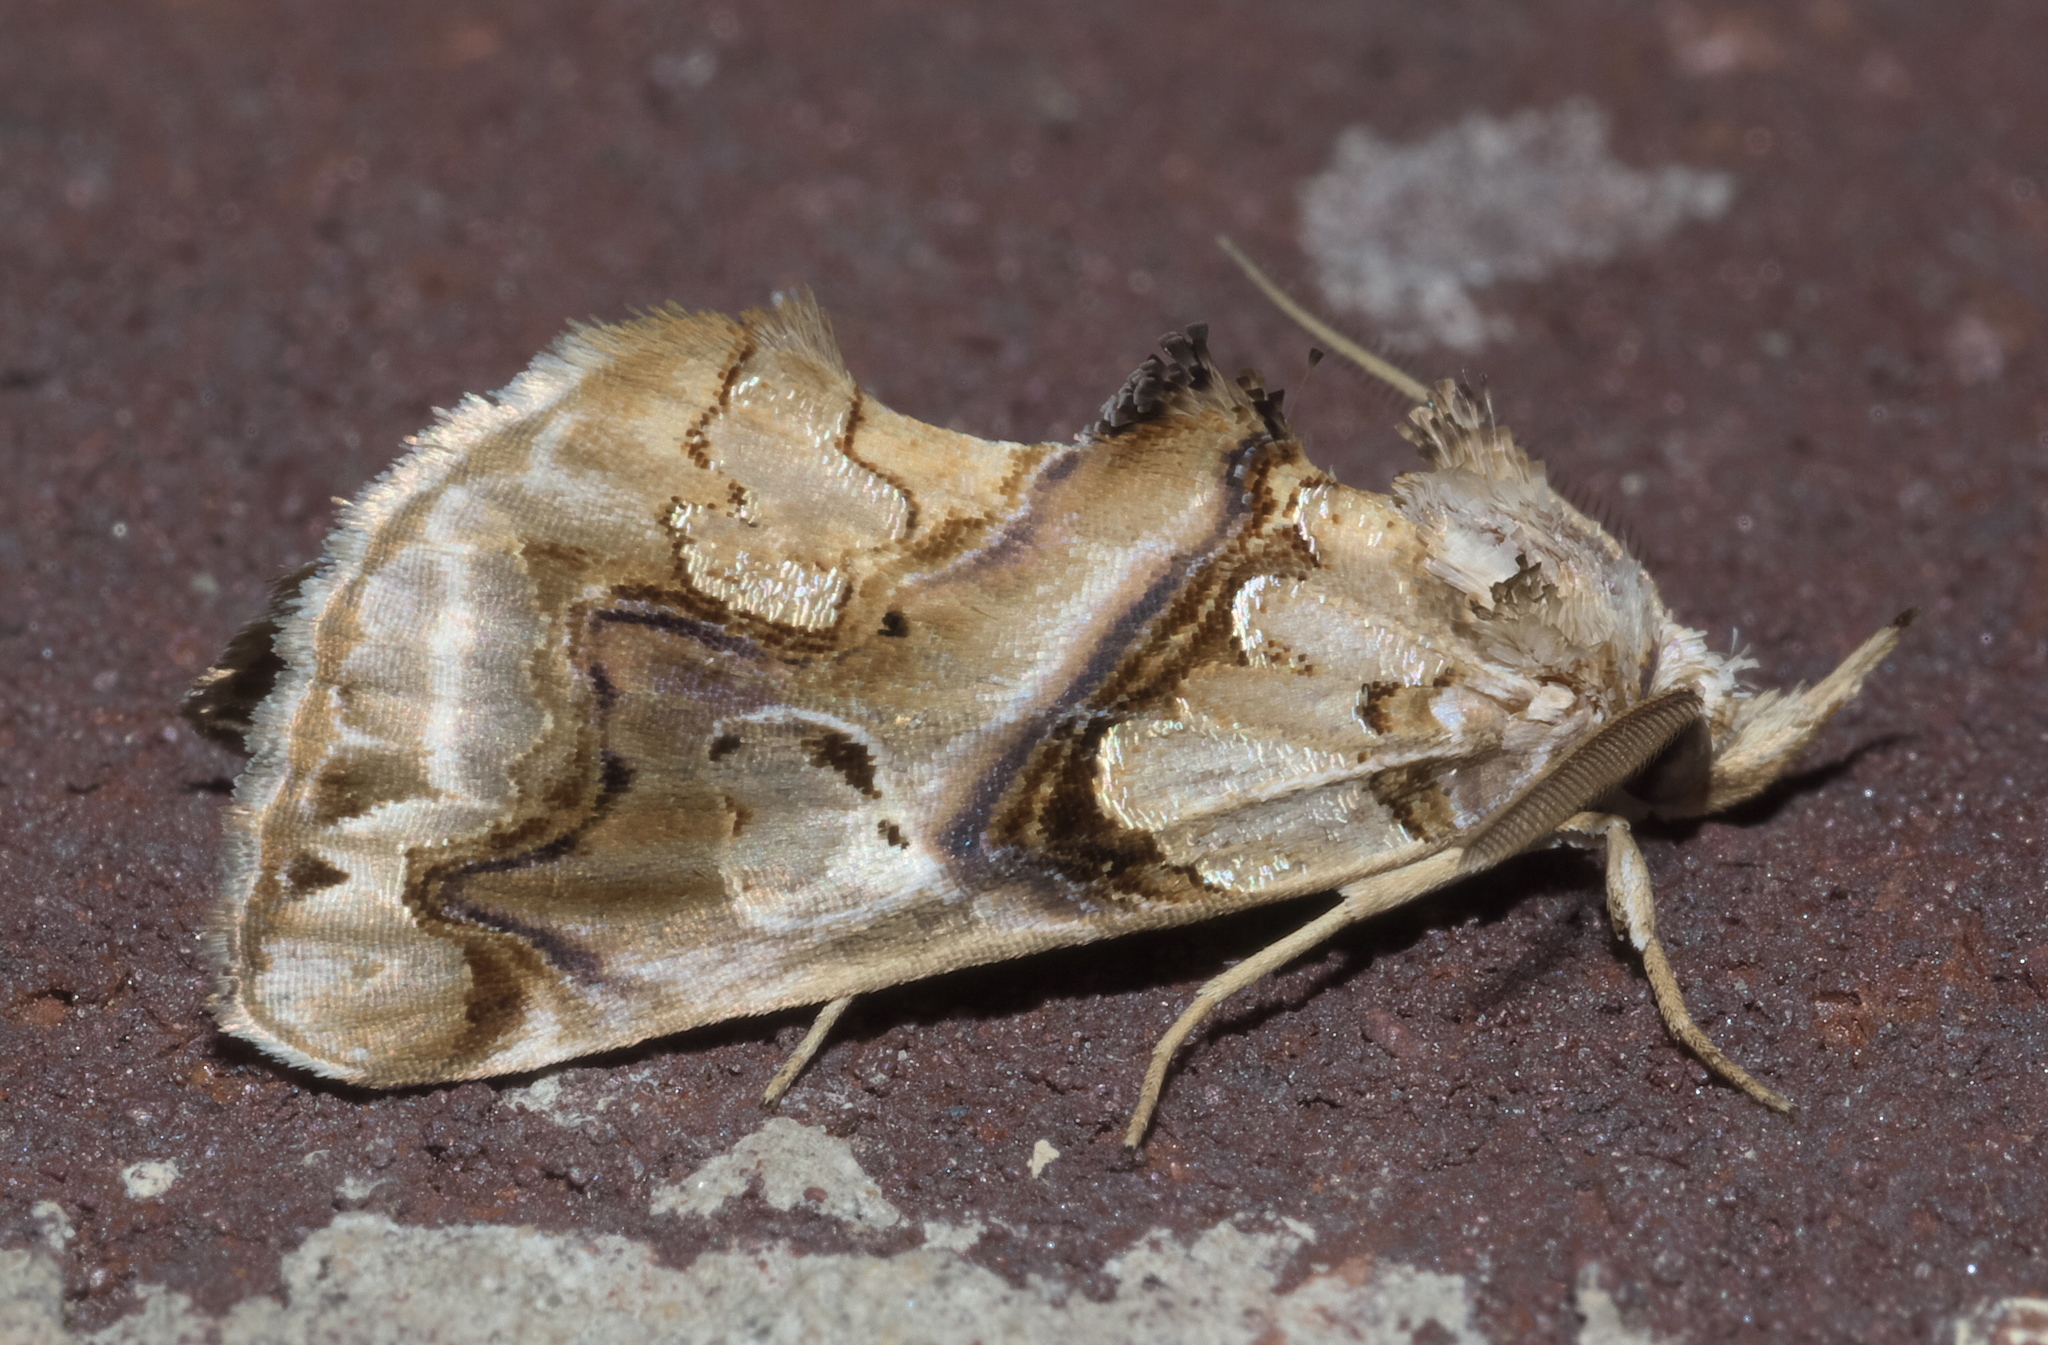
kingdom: Animalia
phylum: Arthropoda
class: Insecta
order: Lepidoptera
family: Erebidae
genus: Plusiodonta
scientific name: Plusiodonta compressipalpis
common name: Moonseed moth
